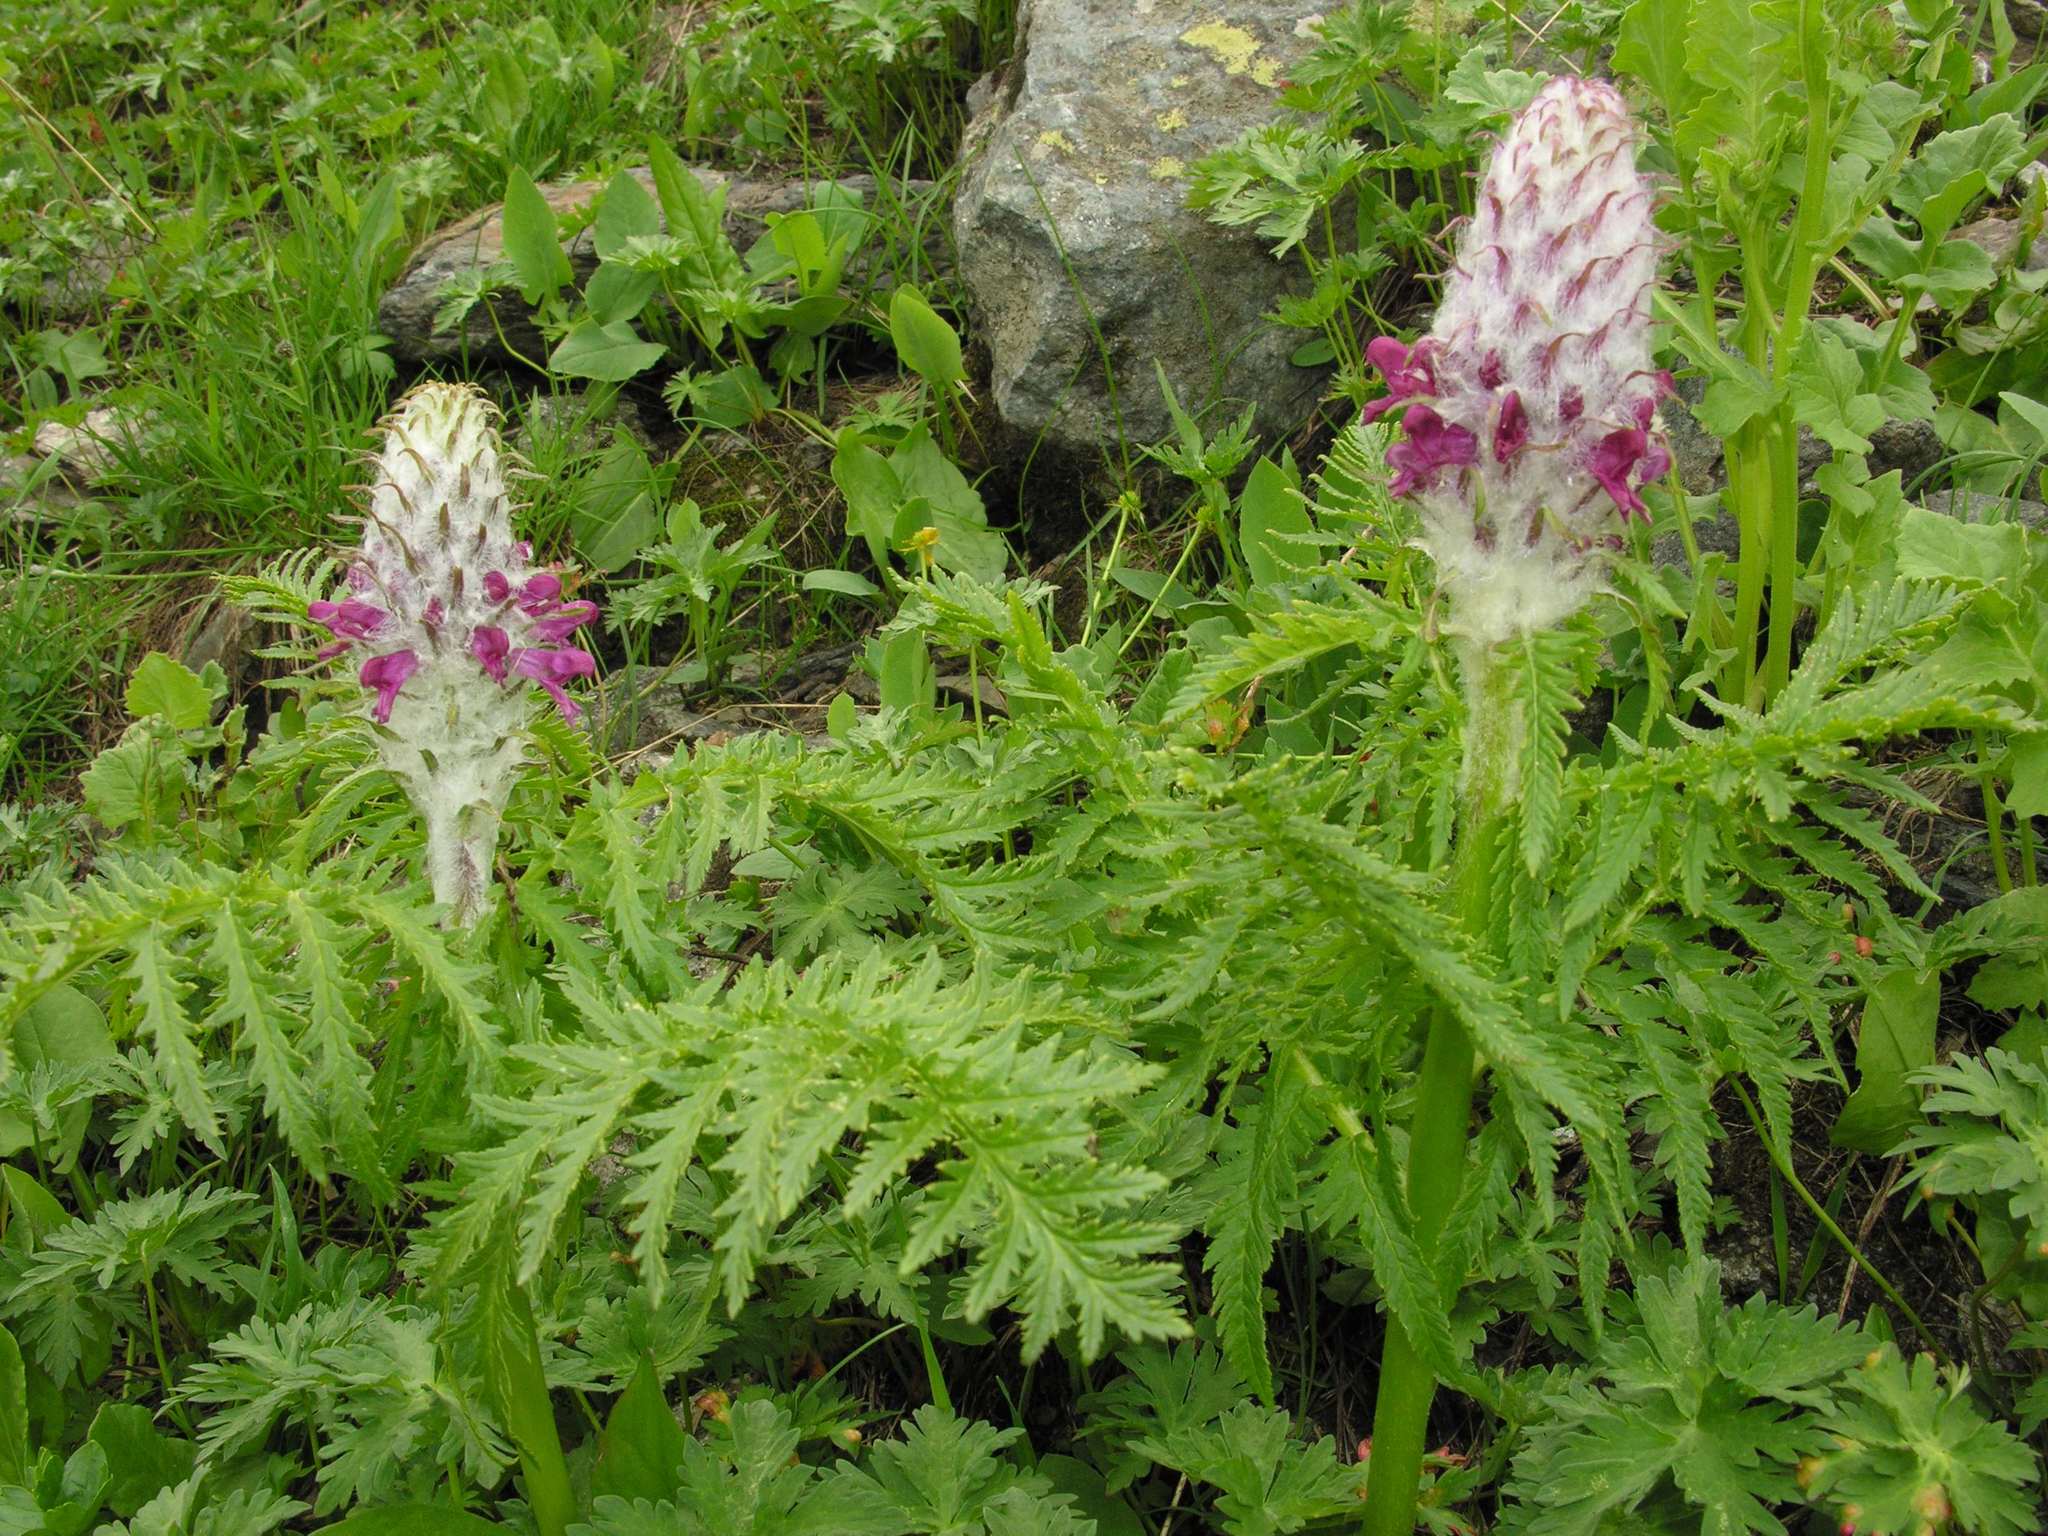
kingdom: Plantae
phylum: Tracheophyta
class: Magnoliopsida
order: Lamiales
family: Orobanchaceae
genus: Pedicularis
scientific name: Pedicularis panjutinii
